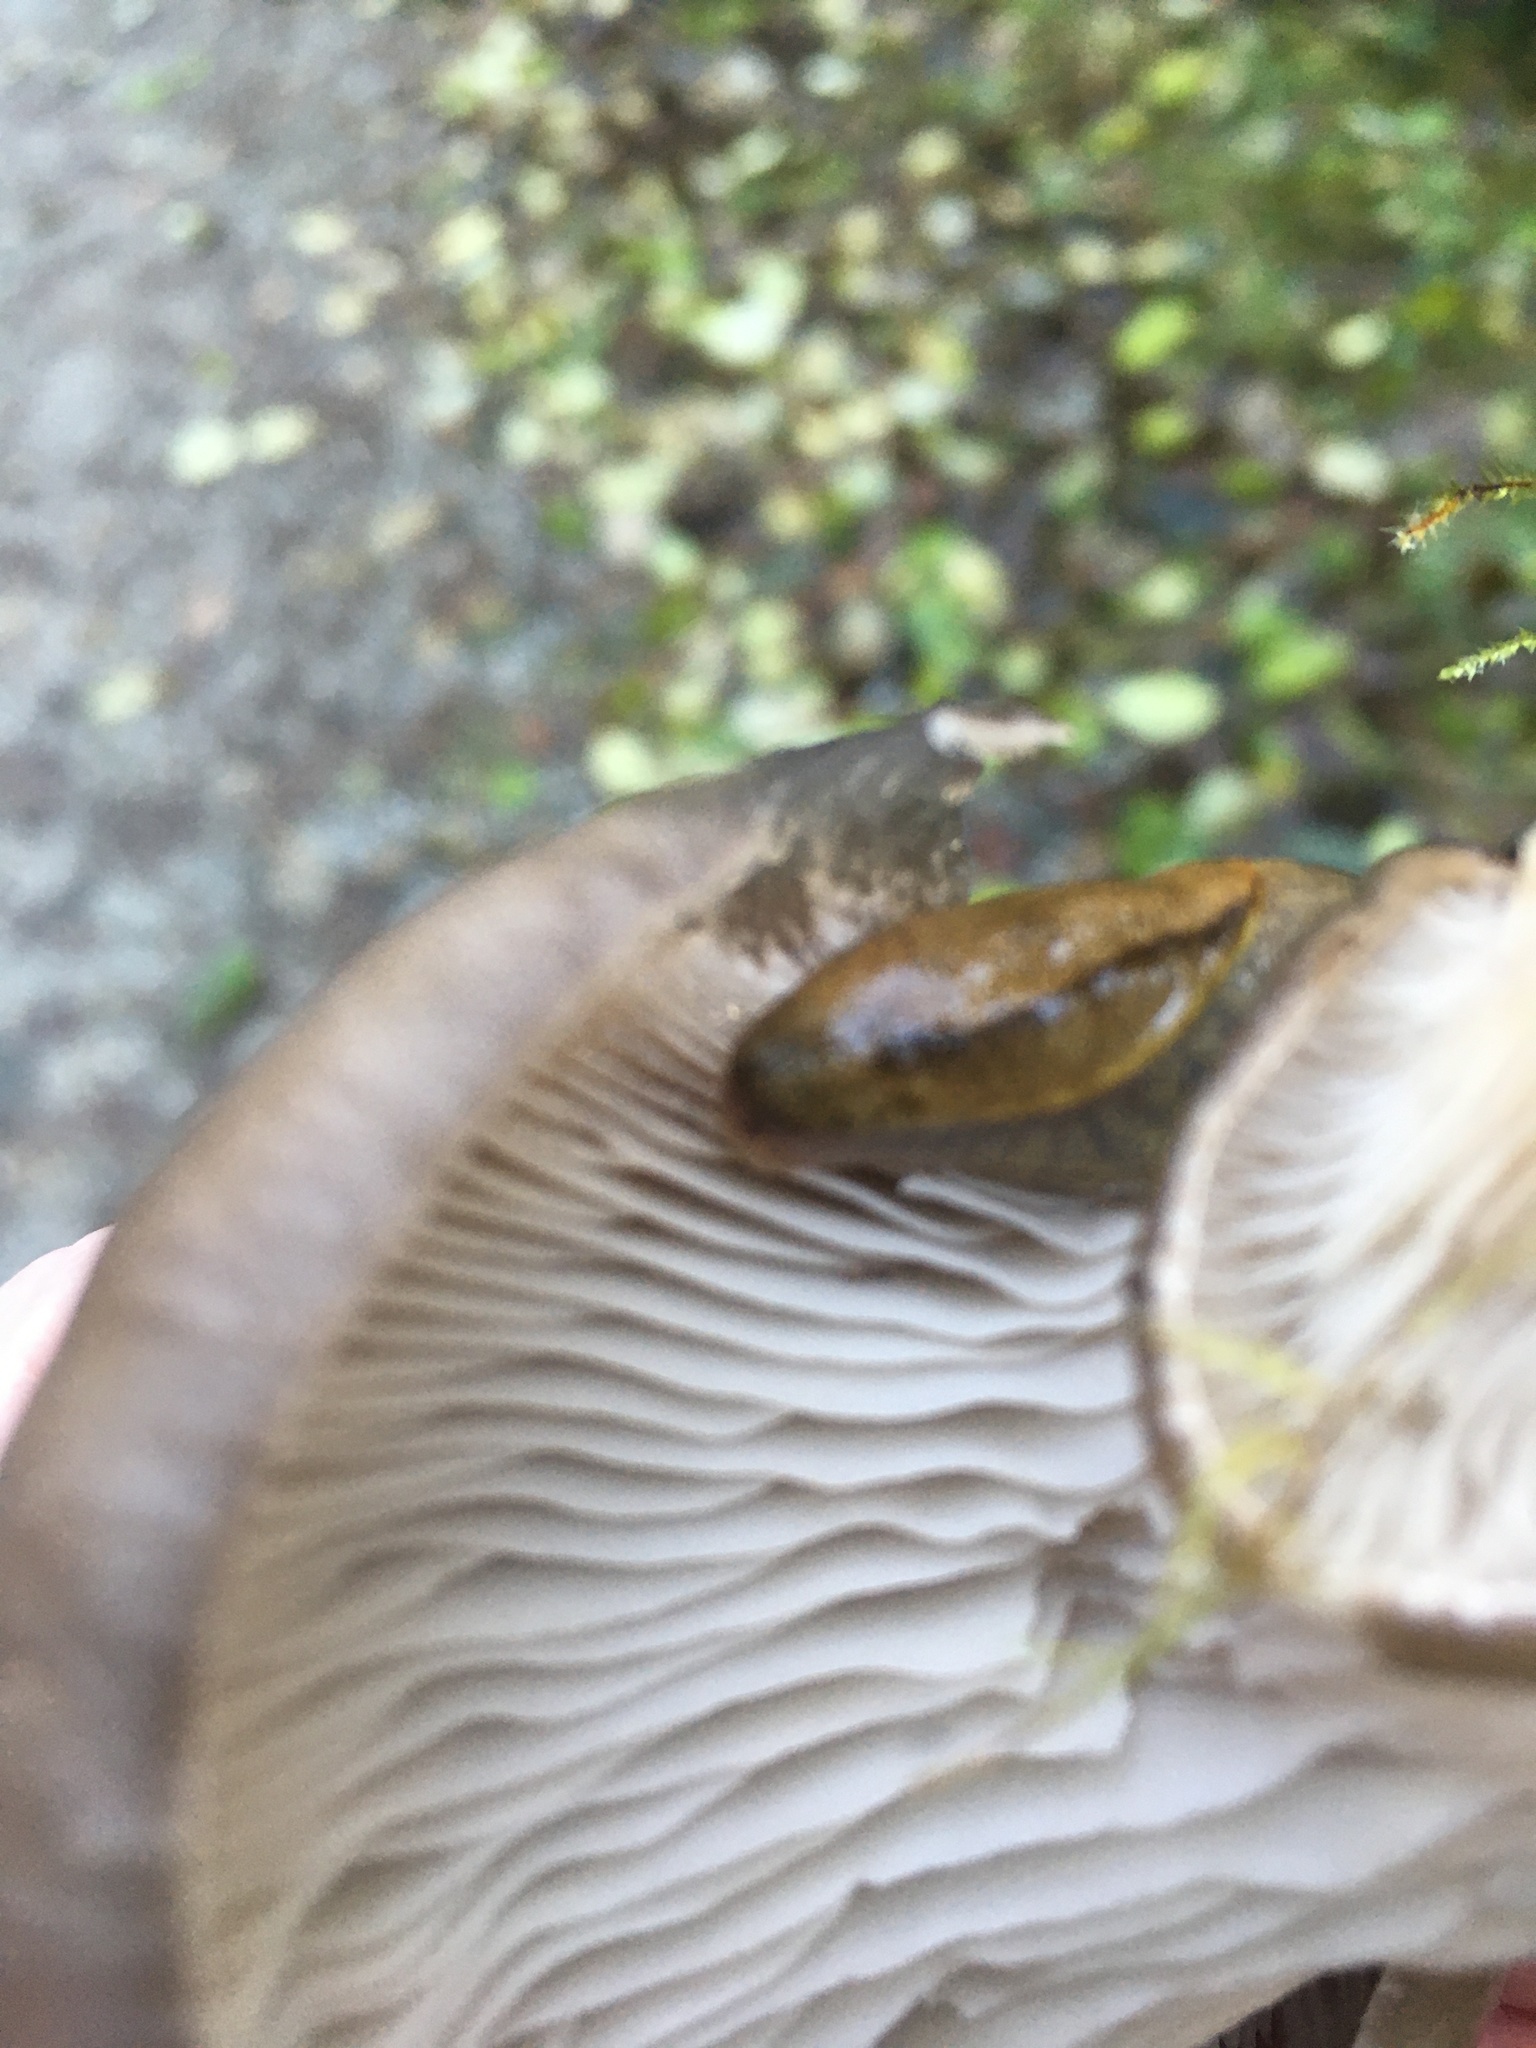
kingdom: Animalia
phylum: Mollusca
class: Gastropoda
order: Stylommatophora
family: Ariolimacidae
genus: Prophysaon
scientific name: Prophysaon foliolatum
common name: Yellow-bordered taildropper
